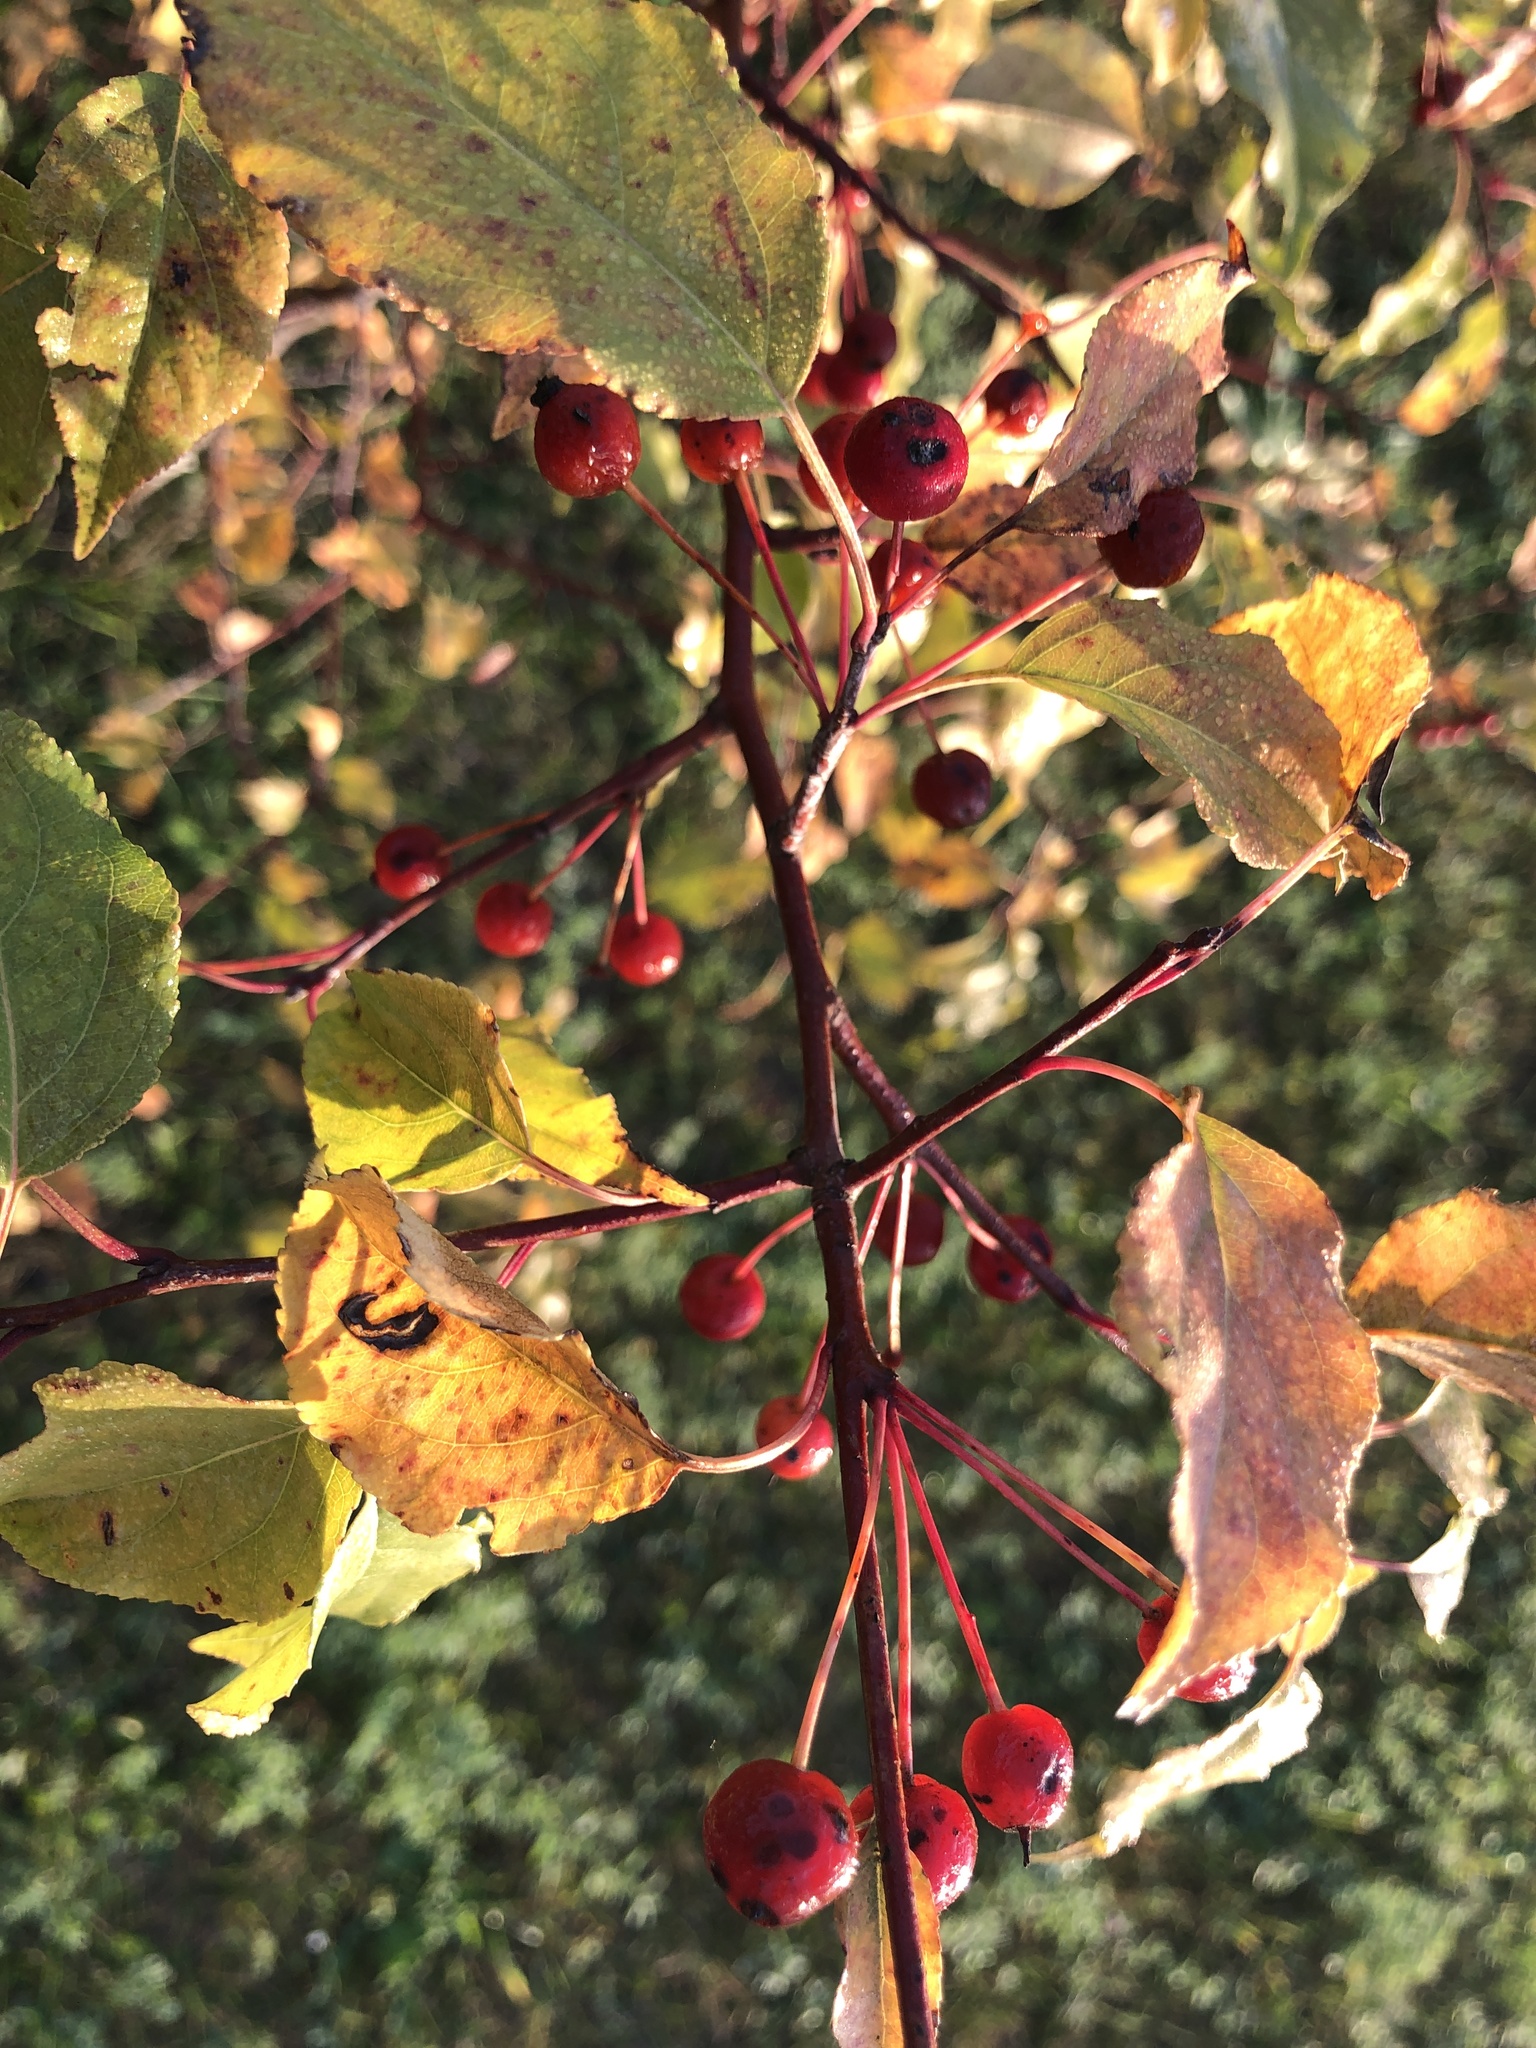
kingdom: Plantae
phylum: Tracheophyta
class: Magnoliopsida
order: Rosales
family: Rosaceae
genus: Malus
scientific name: Malus baccata
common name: Siberian crab
